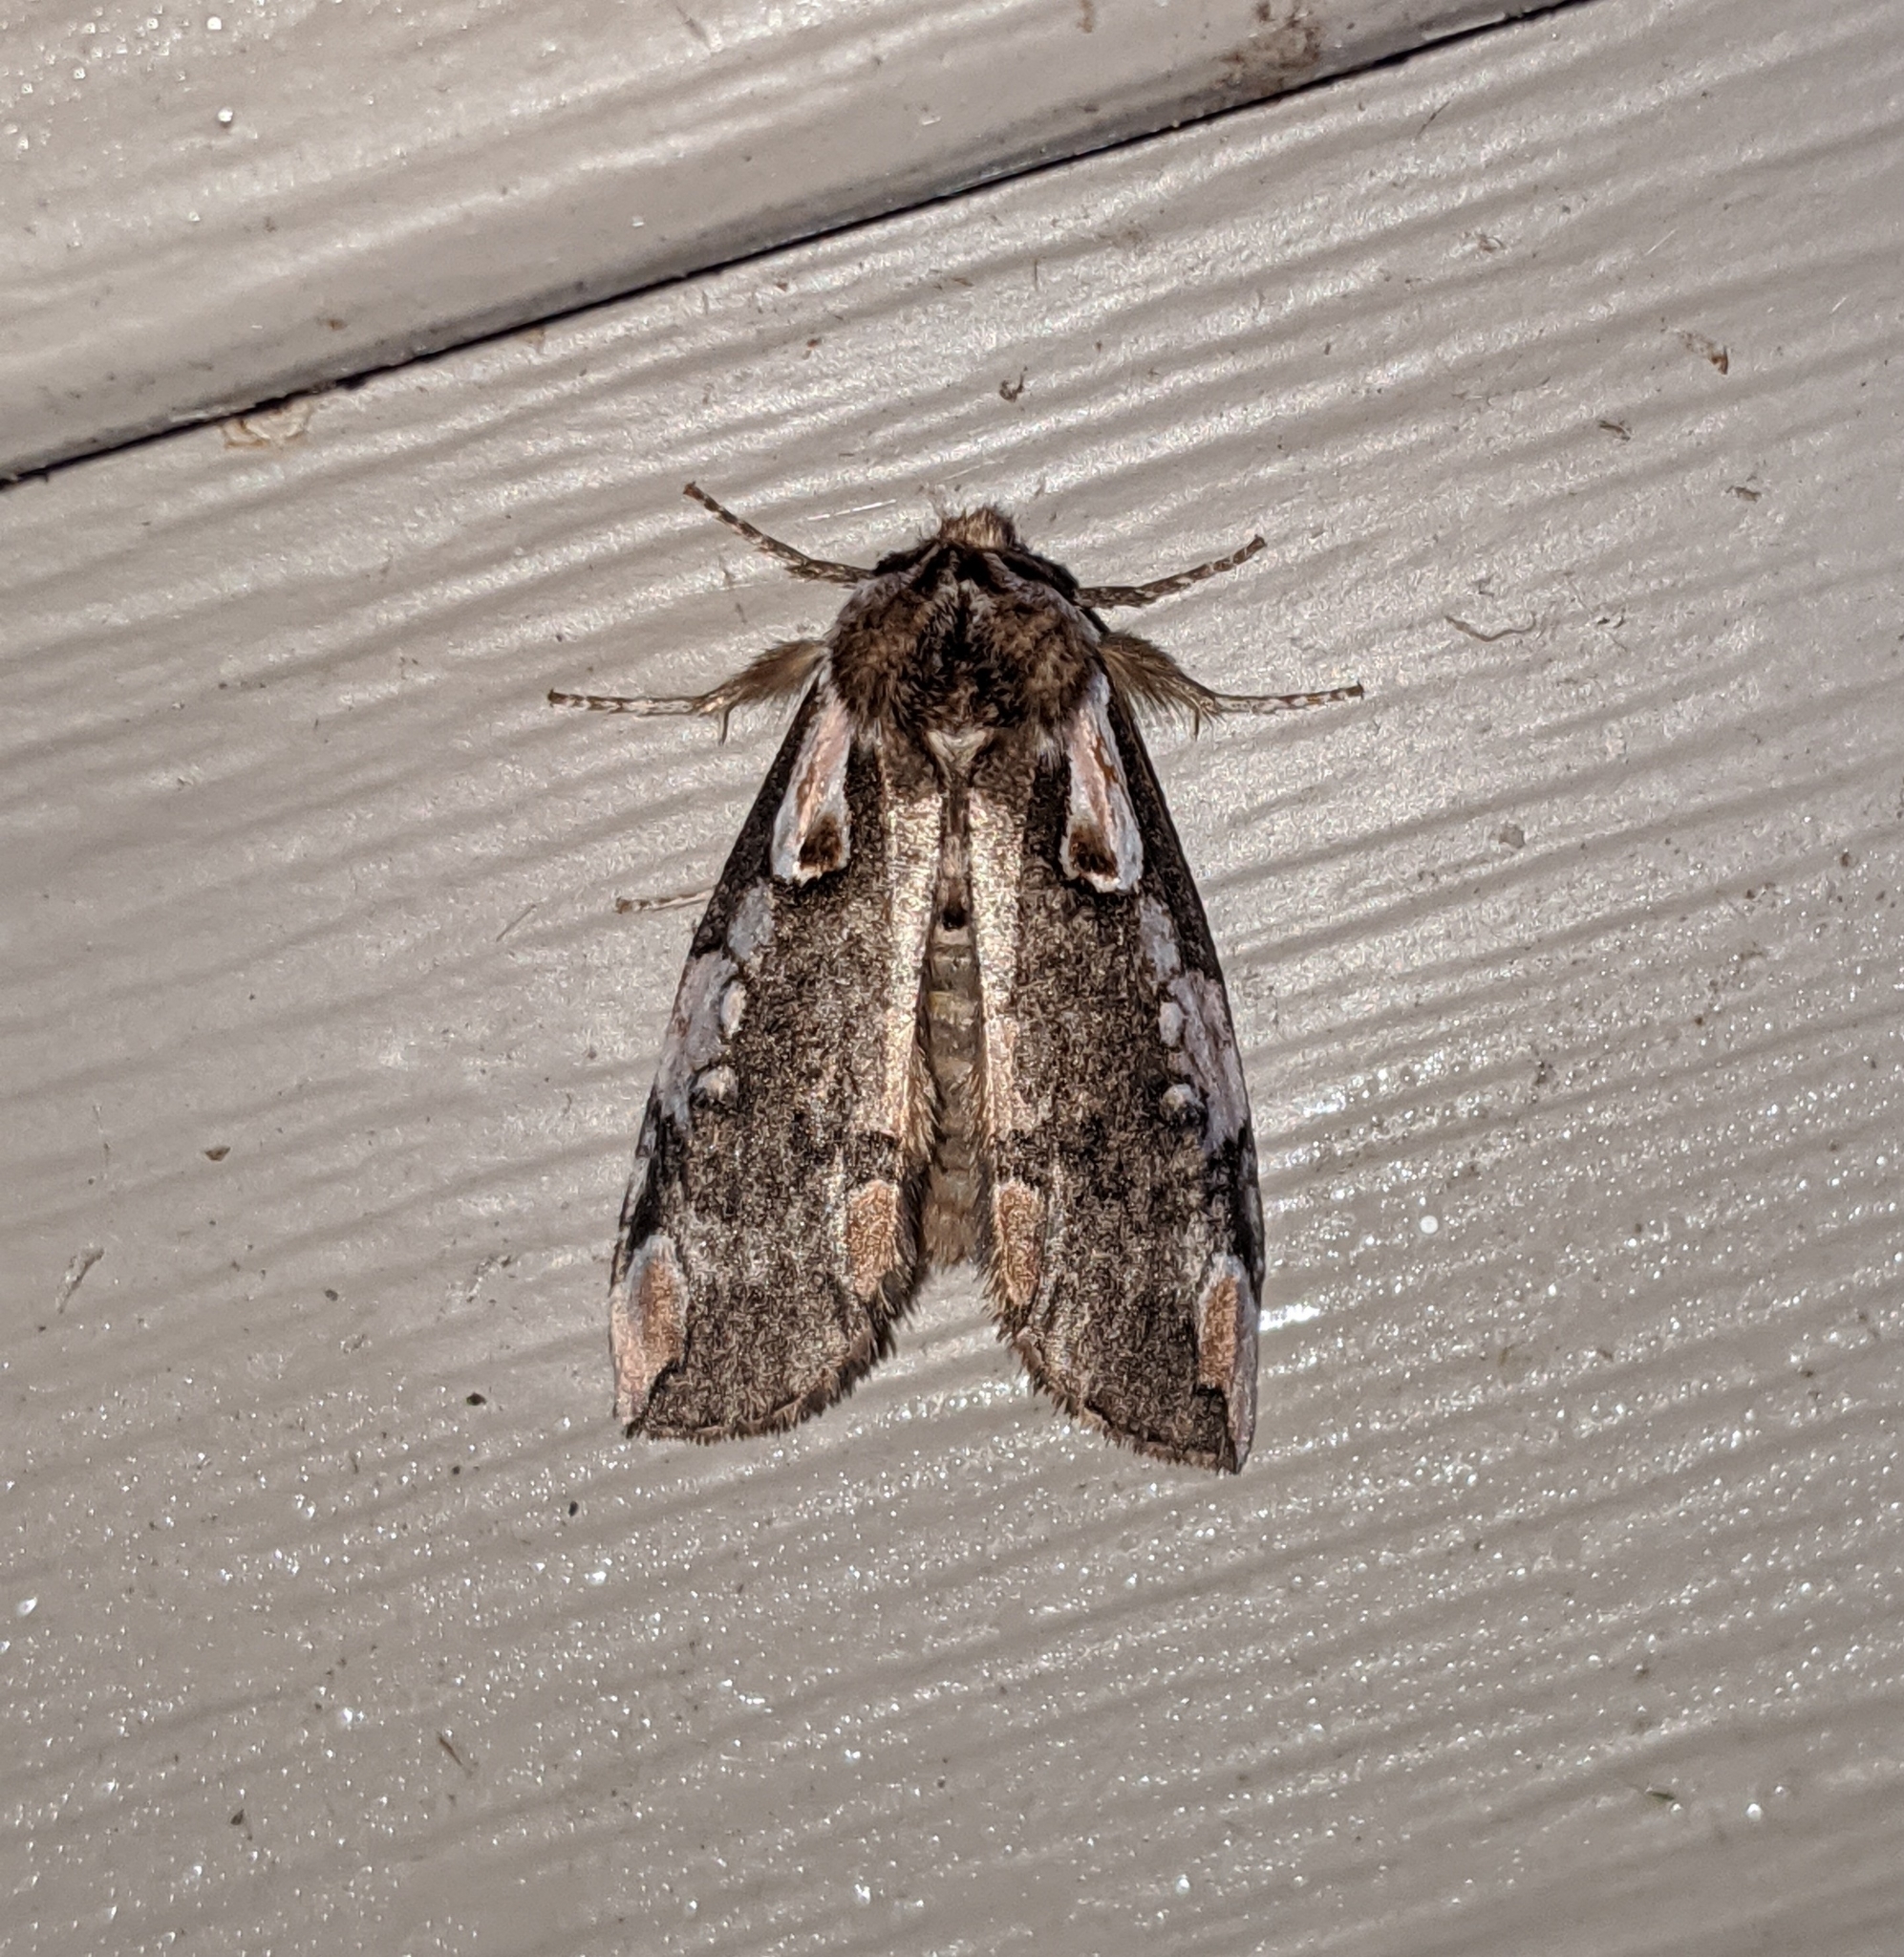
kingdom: Animalia
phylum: Arthropoda
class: Insecta
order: Lepidoptera
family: Drepanidae
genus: Euthyatira
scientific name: Euthyatira pudens
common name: Dogwood thyatirid moth
